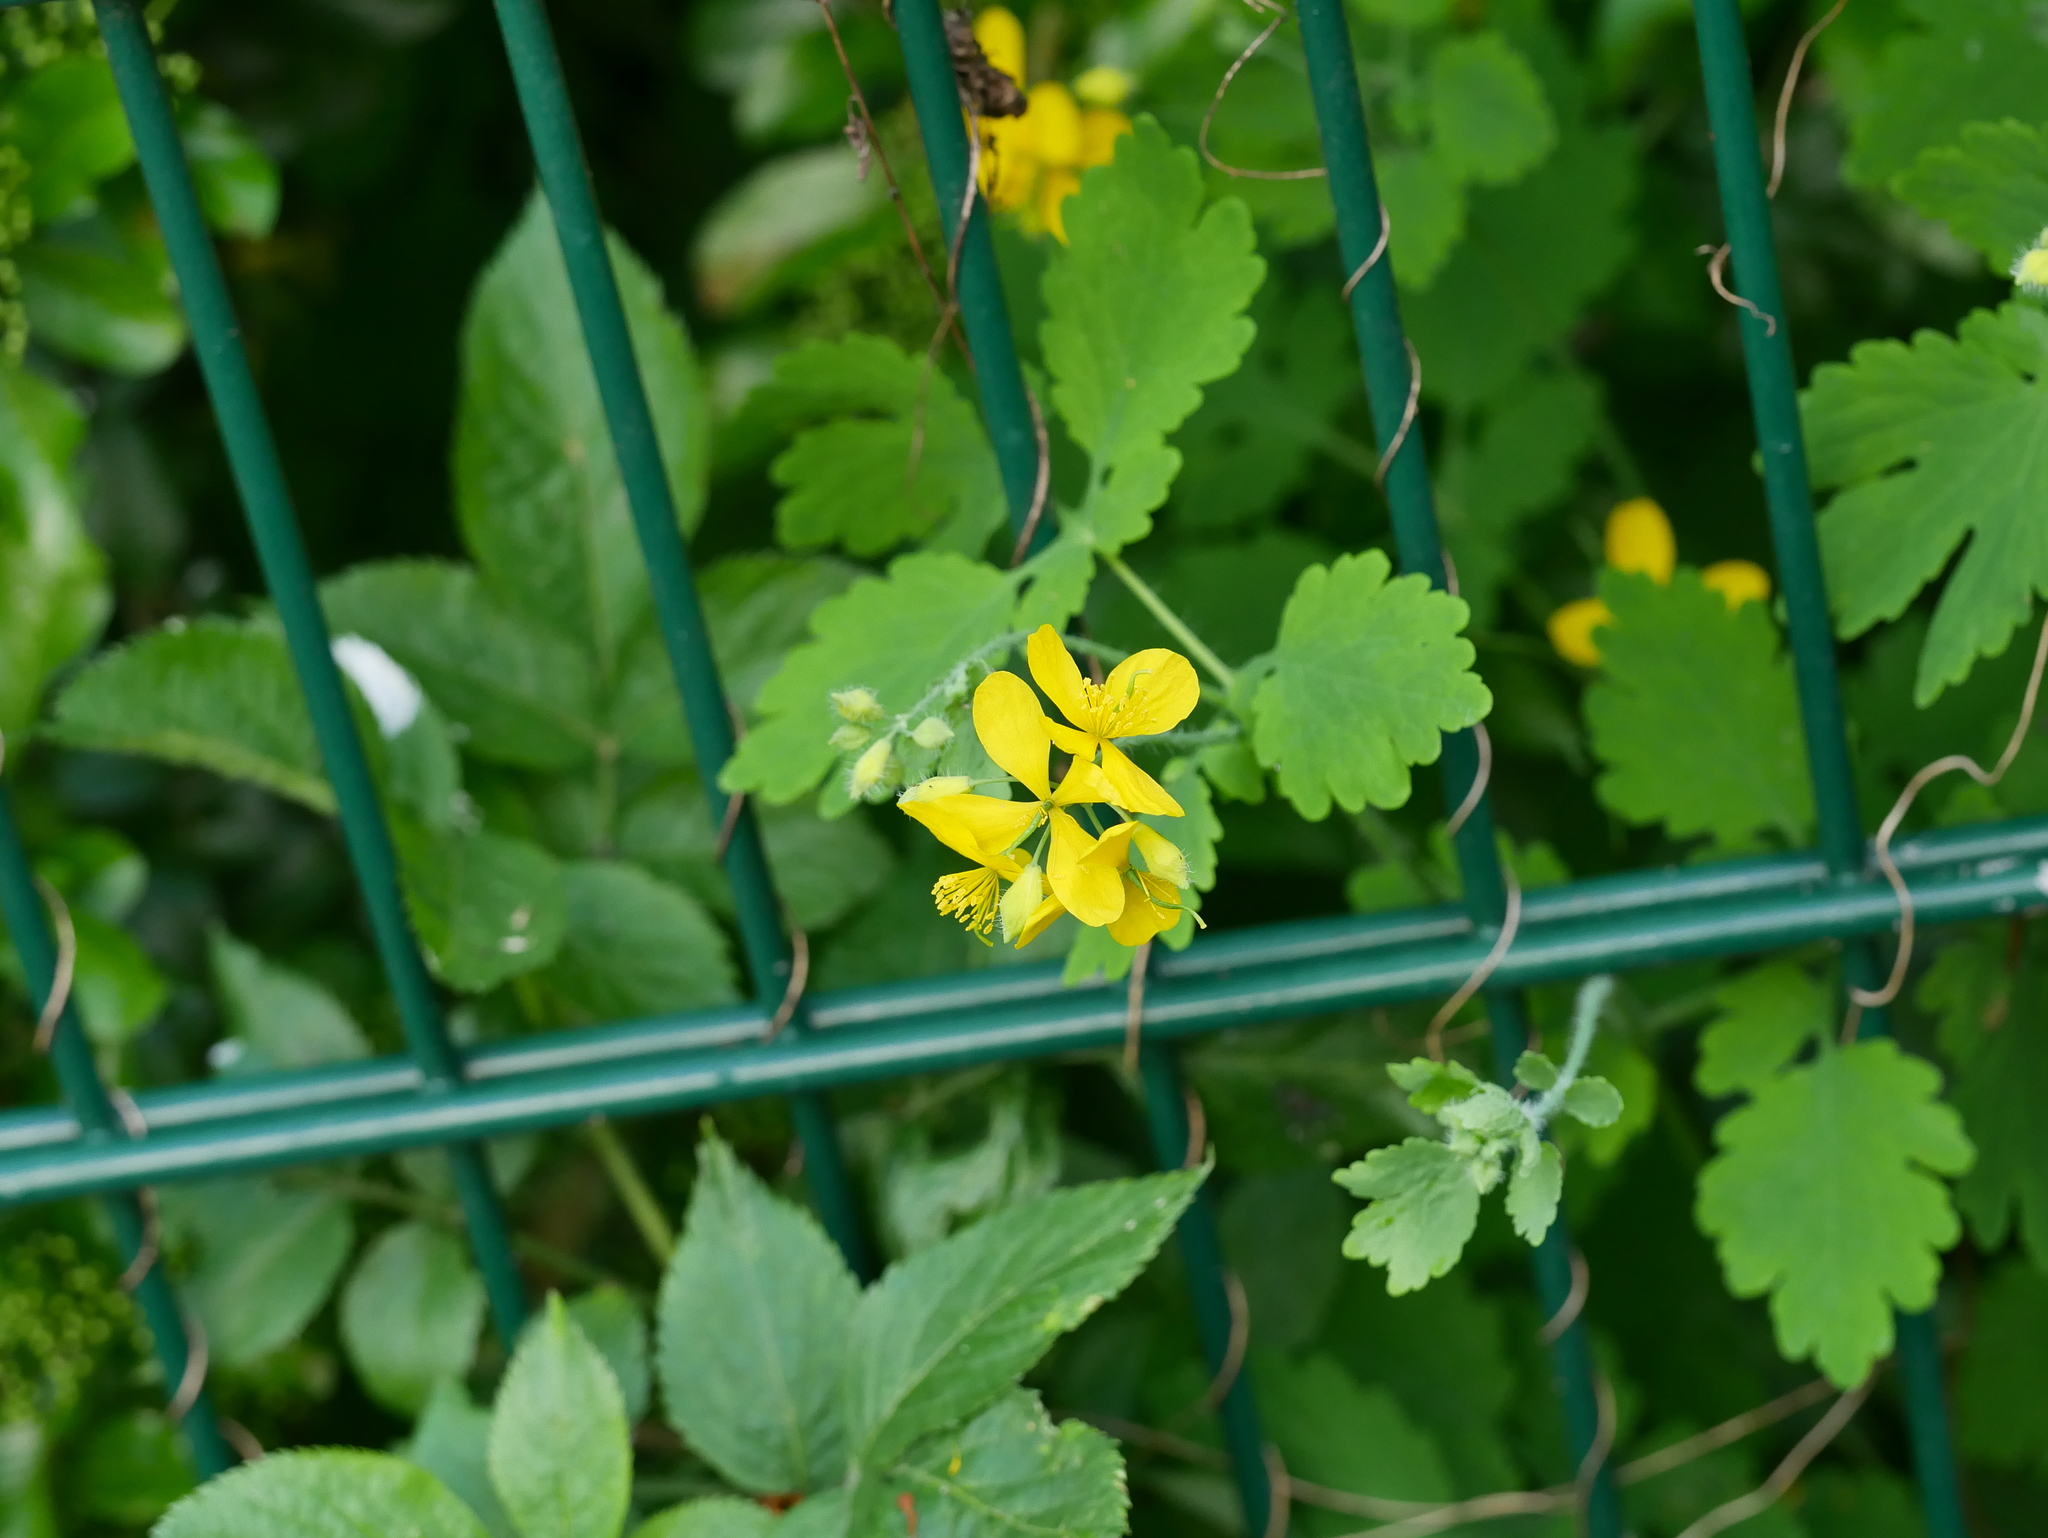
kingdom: Plantae
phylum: Tracheophyta
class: Magnoliopsida
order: Ranunculales
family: Papaveraceae
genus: Chelidonium
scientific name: Chelidonium majus
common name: Greater celandine
